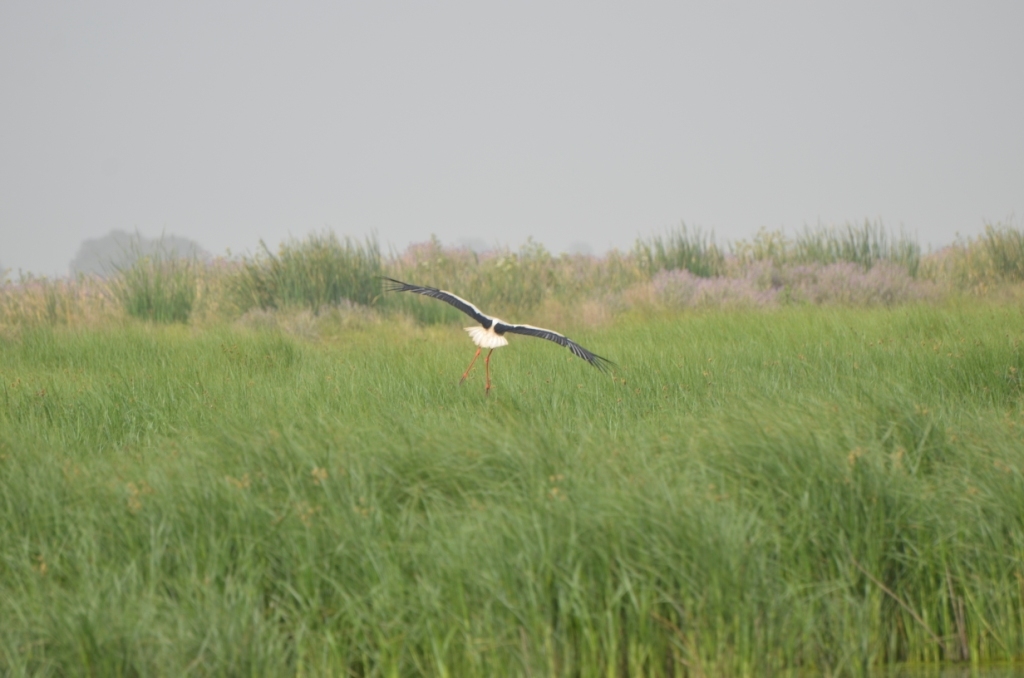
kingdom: Animalia
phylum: Chordata
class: Aves
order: Ciconiiformes
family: Ciconiidae
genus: Ciconia
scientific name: Ciconia ciconia
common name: White stork
